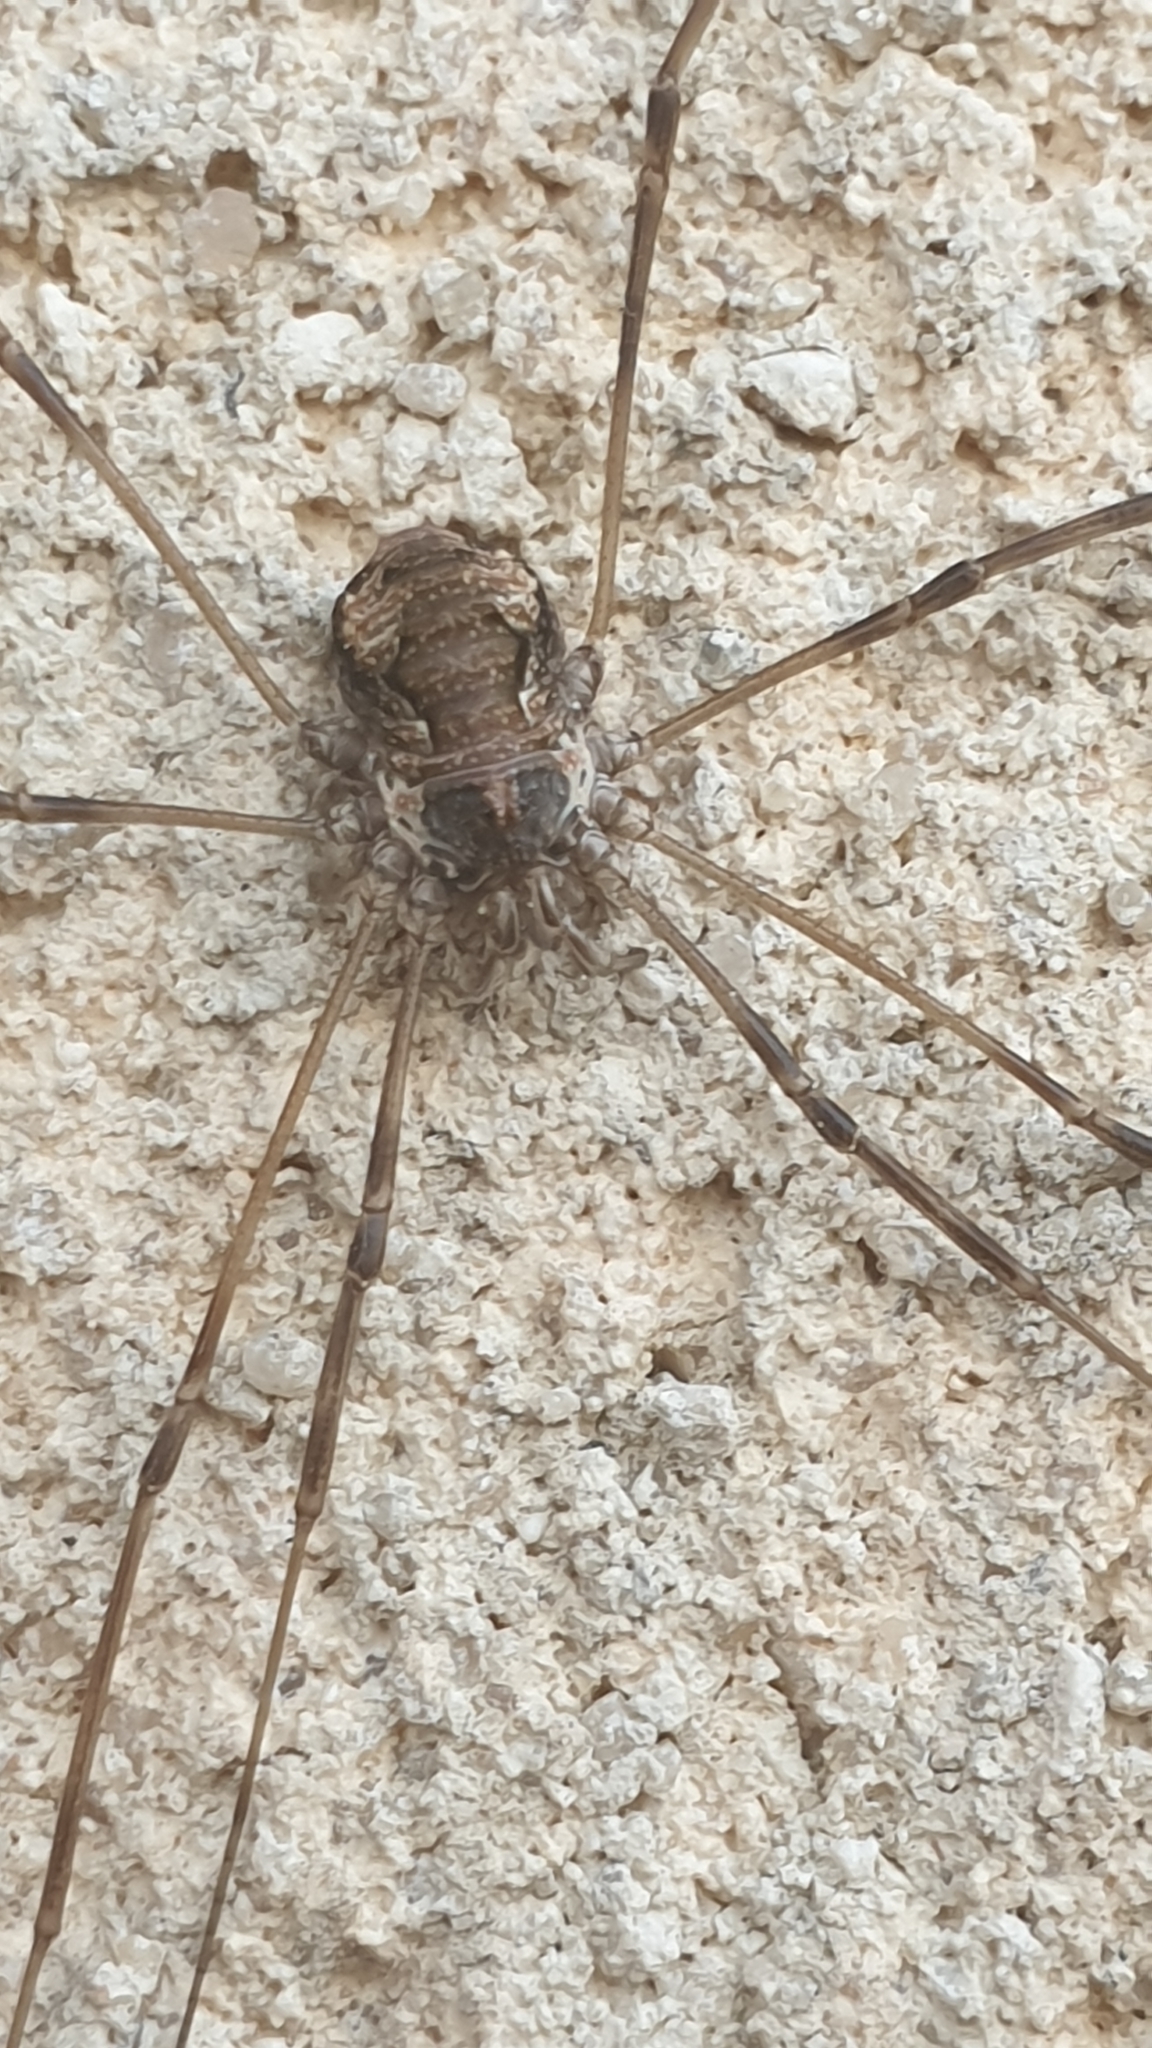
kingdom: Animalia
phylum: Arthropoda
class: Arachnida
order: Opiliones
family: Phalangiidae
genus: Dasylobus
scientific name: Dasylobus graniferus
